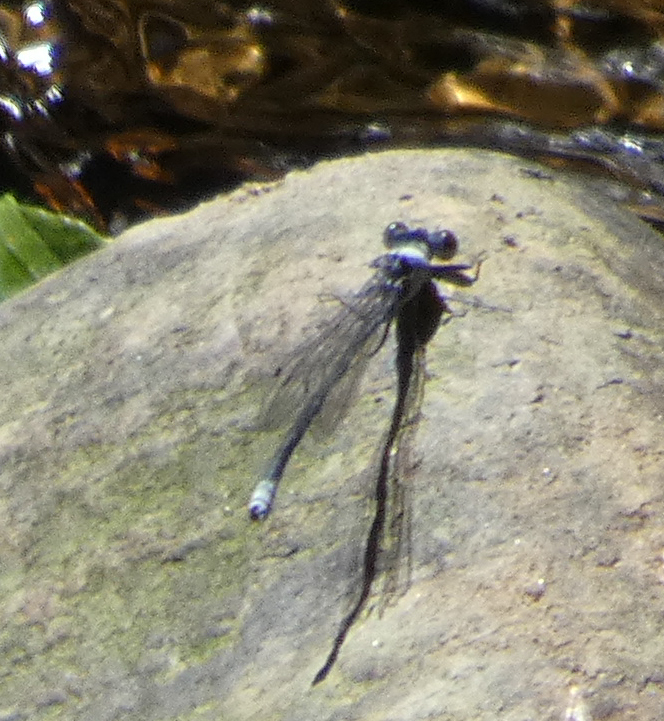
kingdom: Animalia
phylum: Arthropoda
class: Insecta
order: Odonata
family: Coenagrionidae
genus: Argia
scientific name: Argia moesta
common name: Powdered dancer
